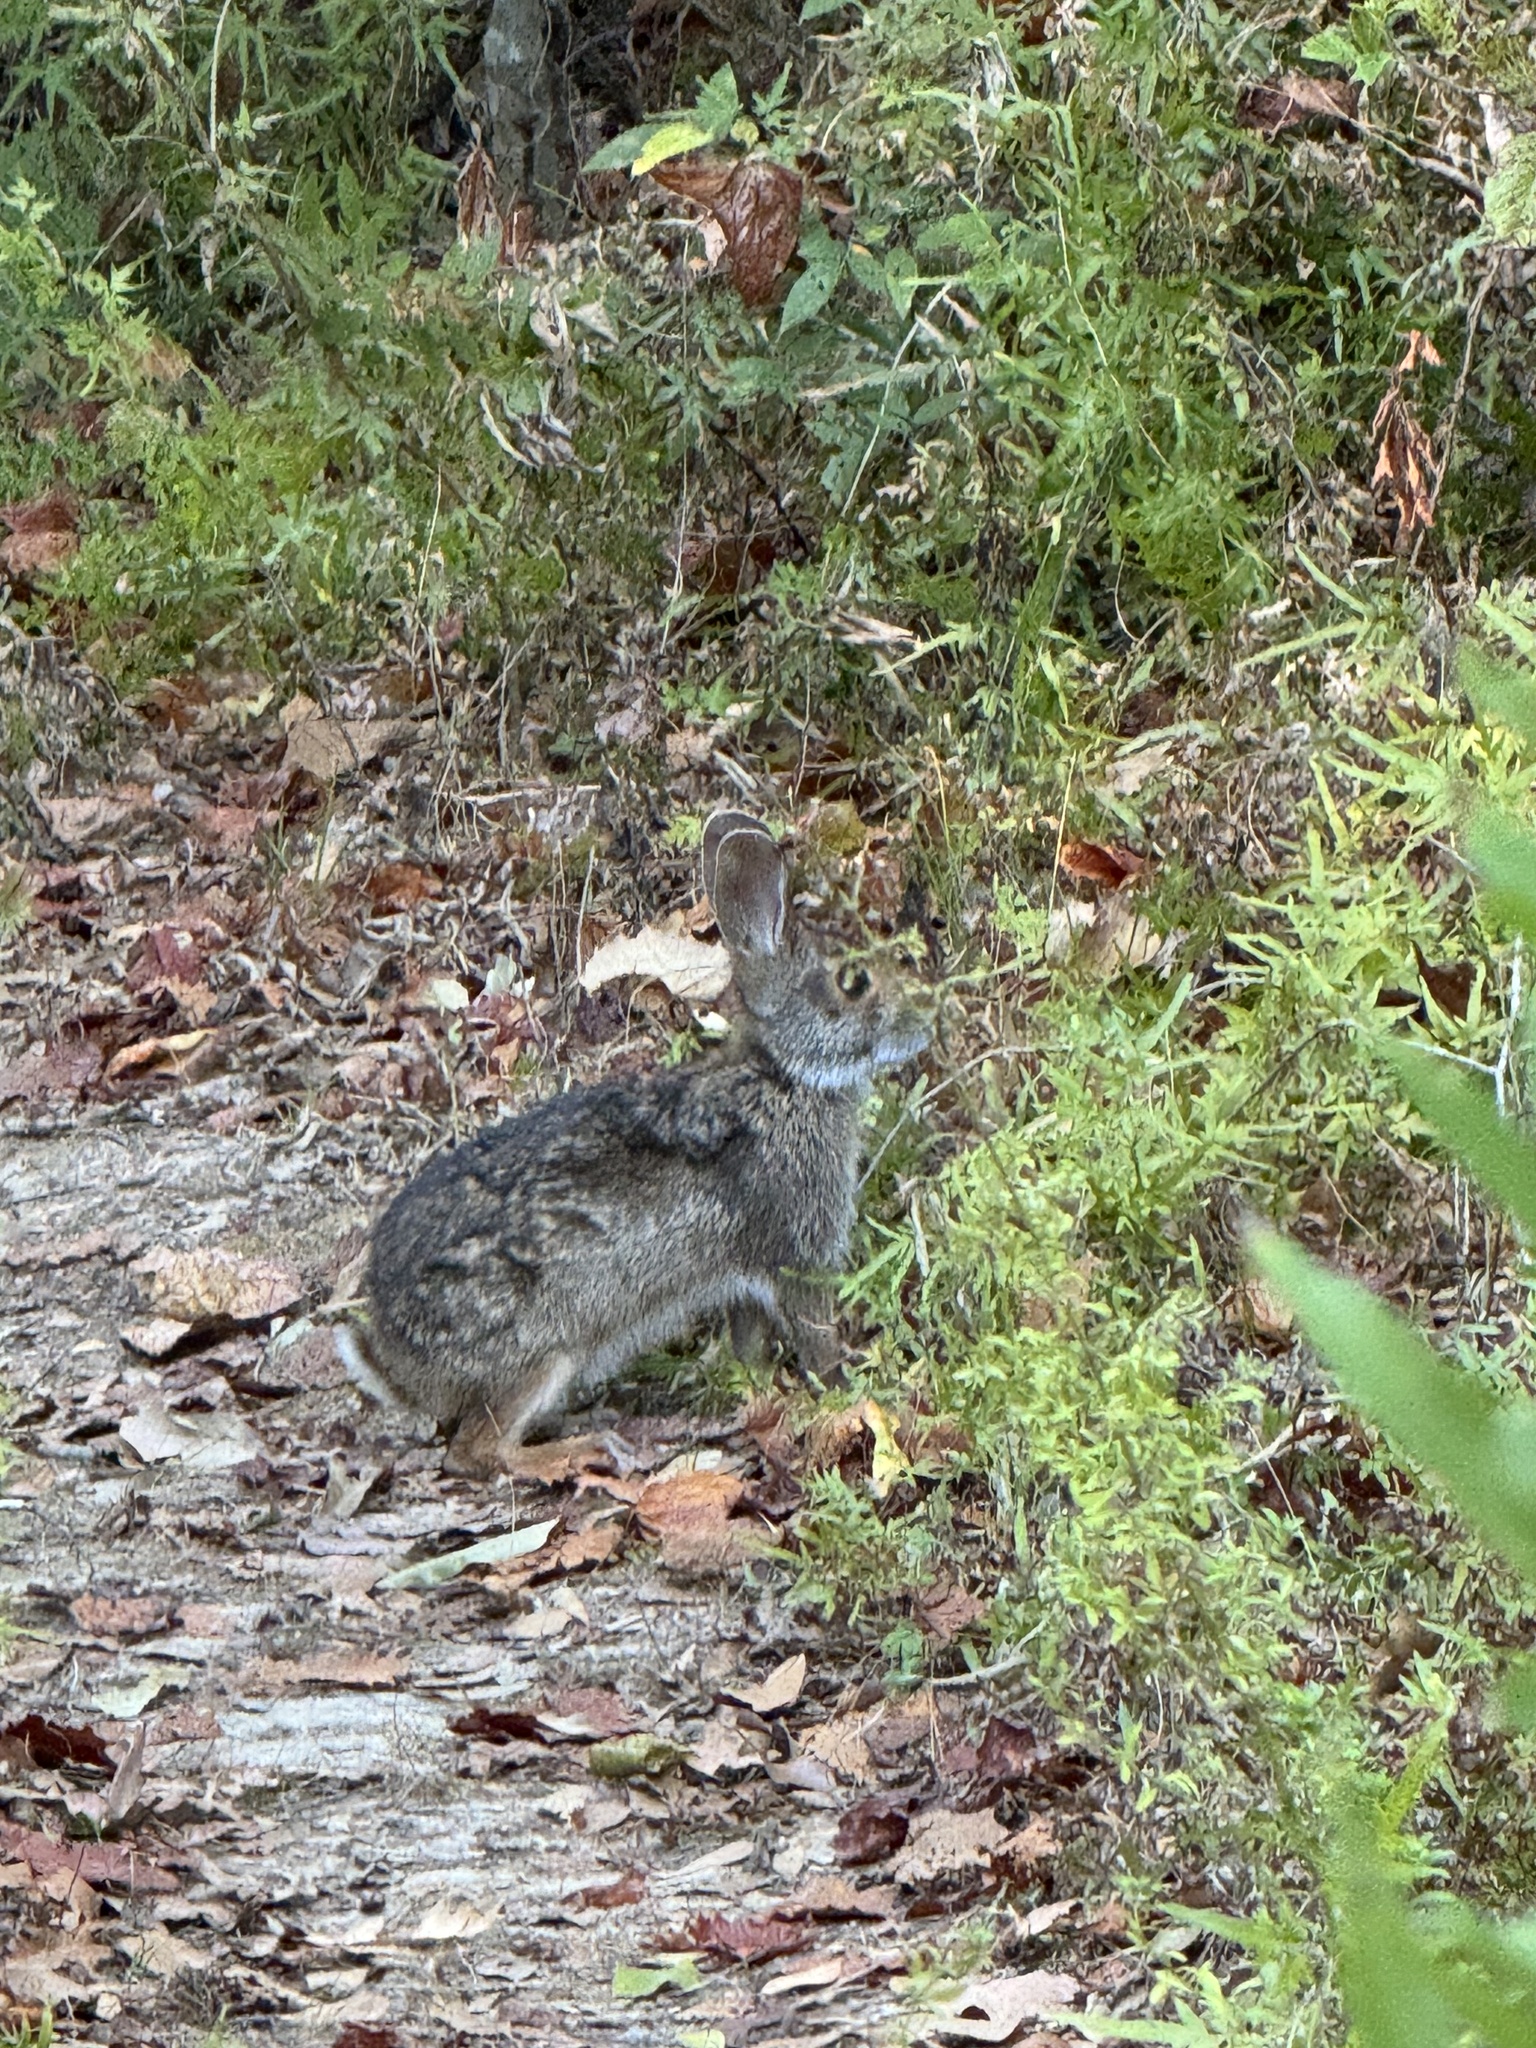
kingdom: Animalia
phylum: Chordata
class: Mammalia
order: Lagomorpha
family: Leporidae
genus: Sylvilagus
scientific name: Sylvilagus aquaticus
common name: Swamp rabbit
